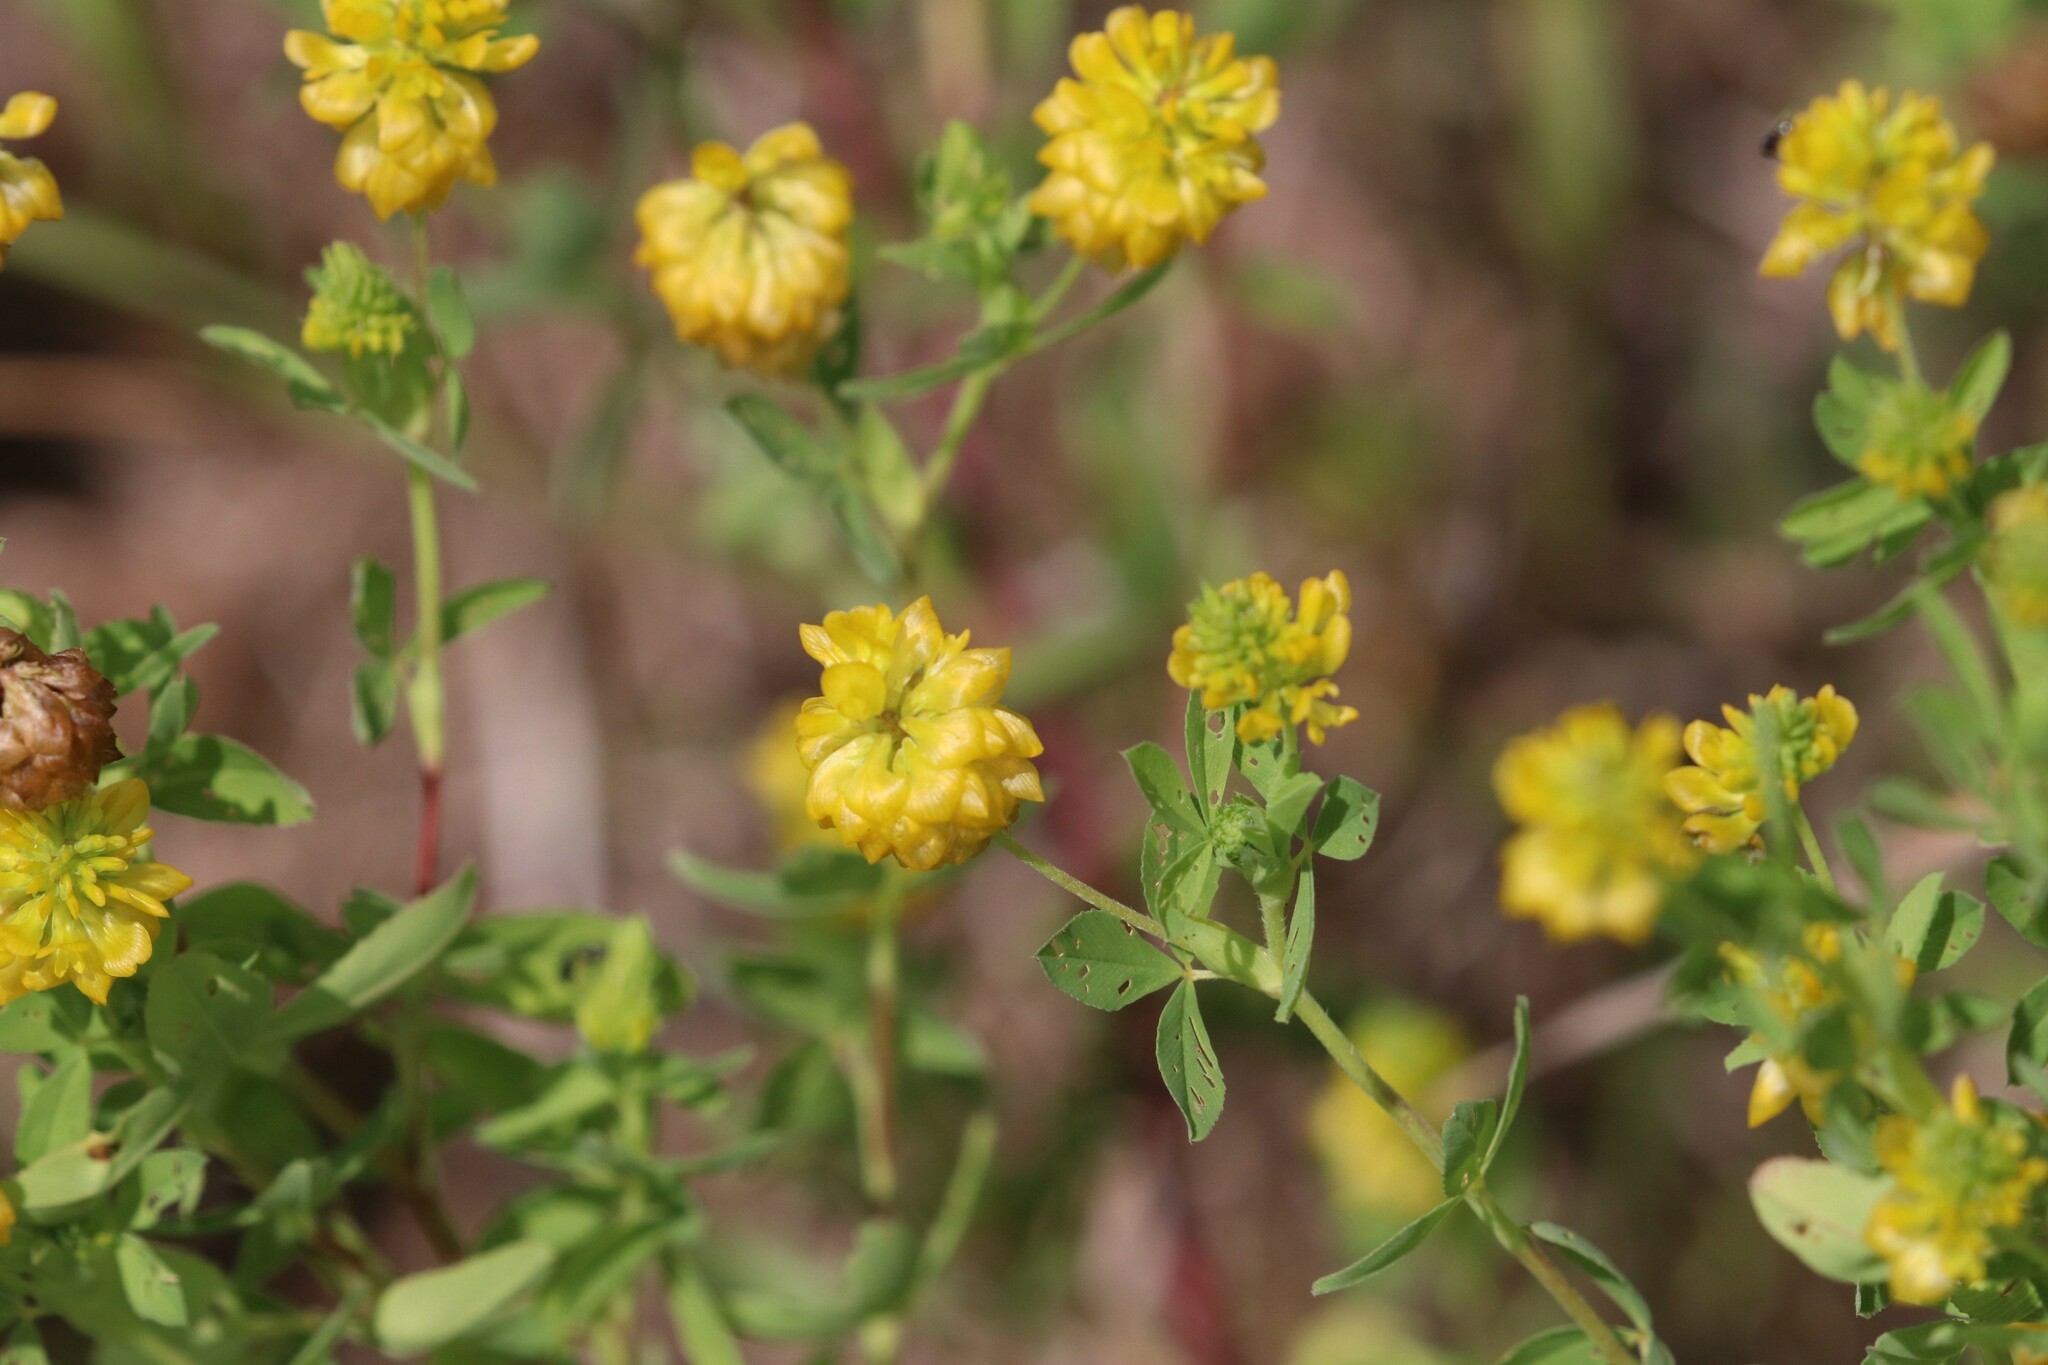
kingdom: Plantae
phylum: Tracheophyta
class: Magnoliopsida
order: Fabales
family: Fabaceae
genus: Trifolium
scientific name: Trifolium aureum
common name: Golden clover
